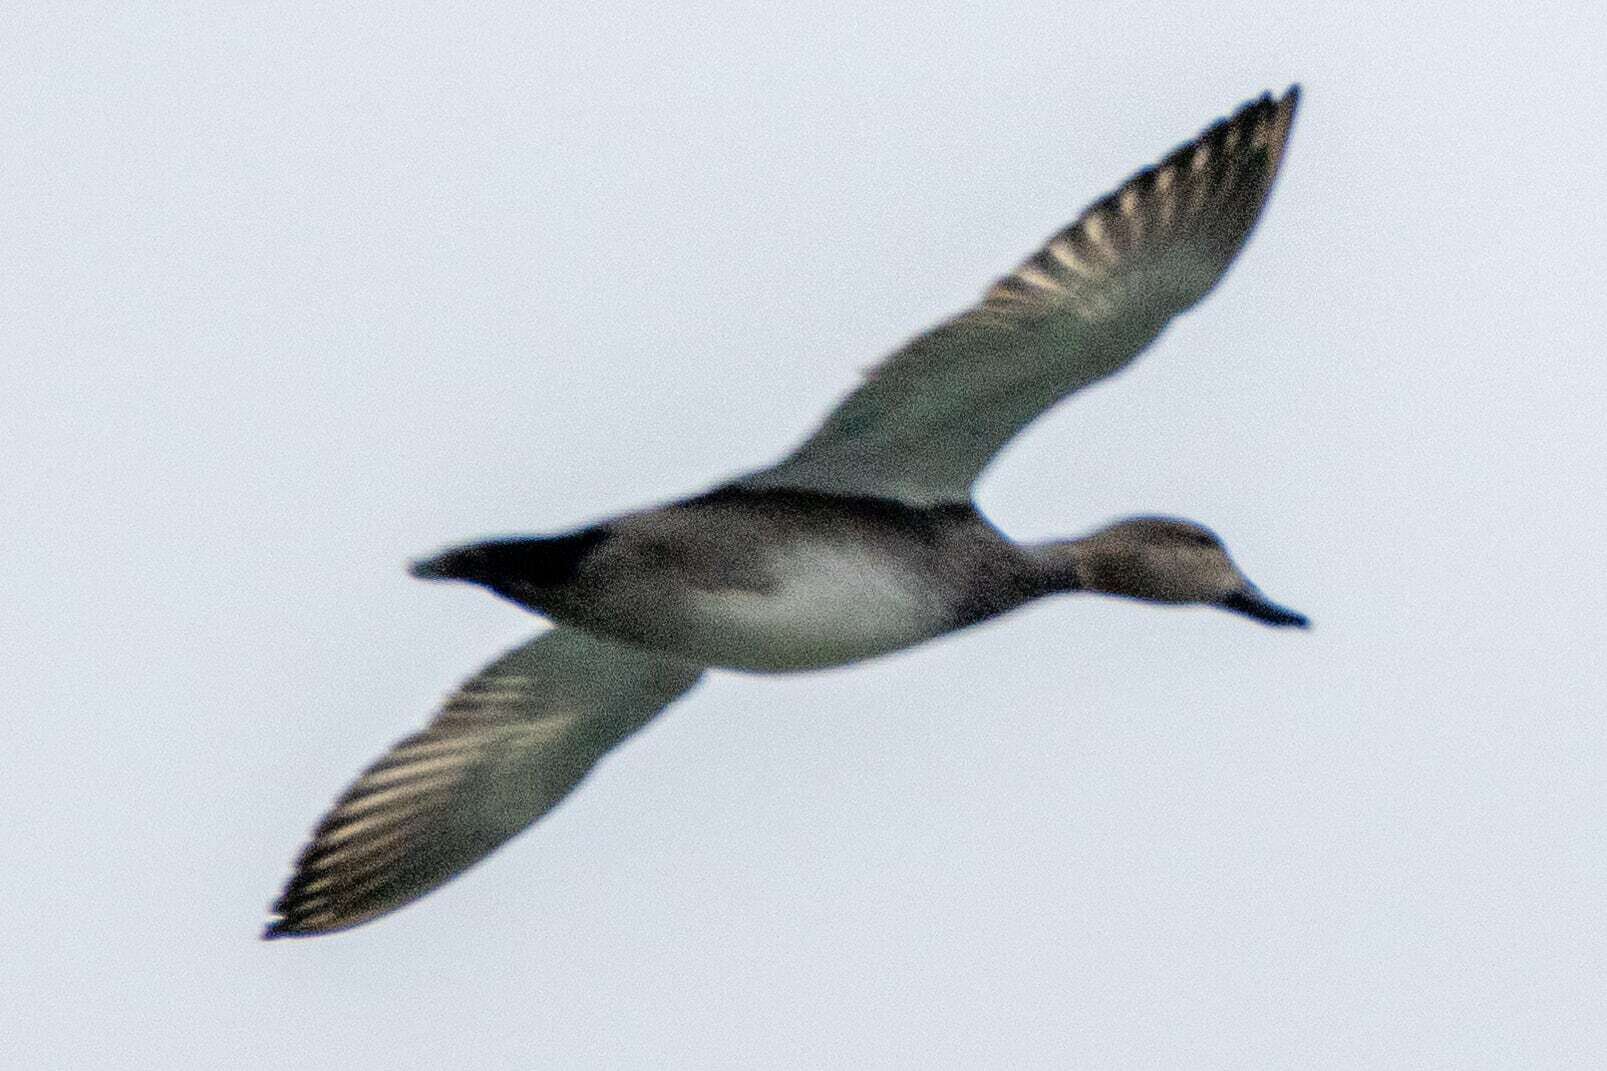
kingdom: Animalia
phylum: Chordata
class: Aves
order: Anseriformes
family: Anatidae
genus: Mareca
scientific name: Mareca strepera
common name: Gadwall
